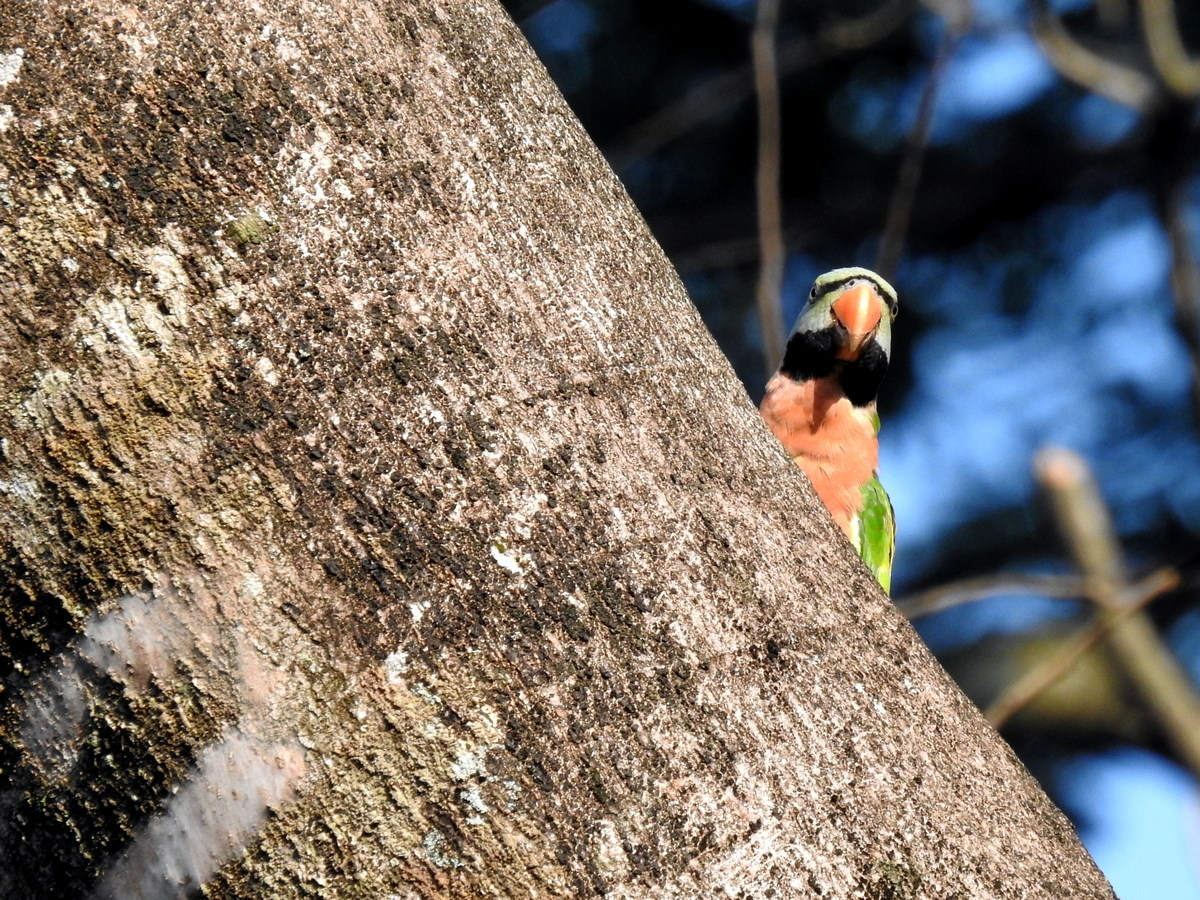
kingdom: Animalia
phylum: Chordata
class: Aves
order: Psittaciformes
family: Psittacidae
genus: Psittacula
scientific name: Psittacula alexandri
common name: Red-breasted parakeet
